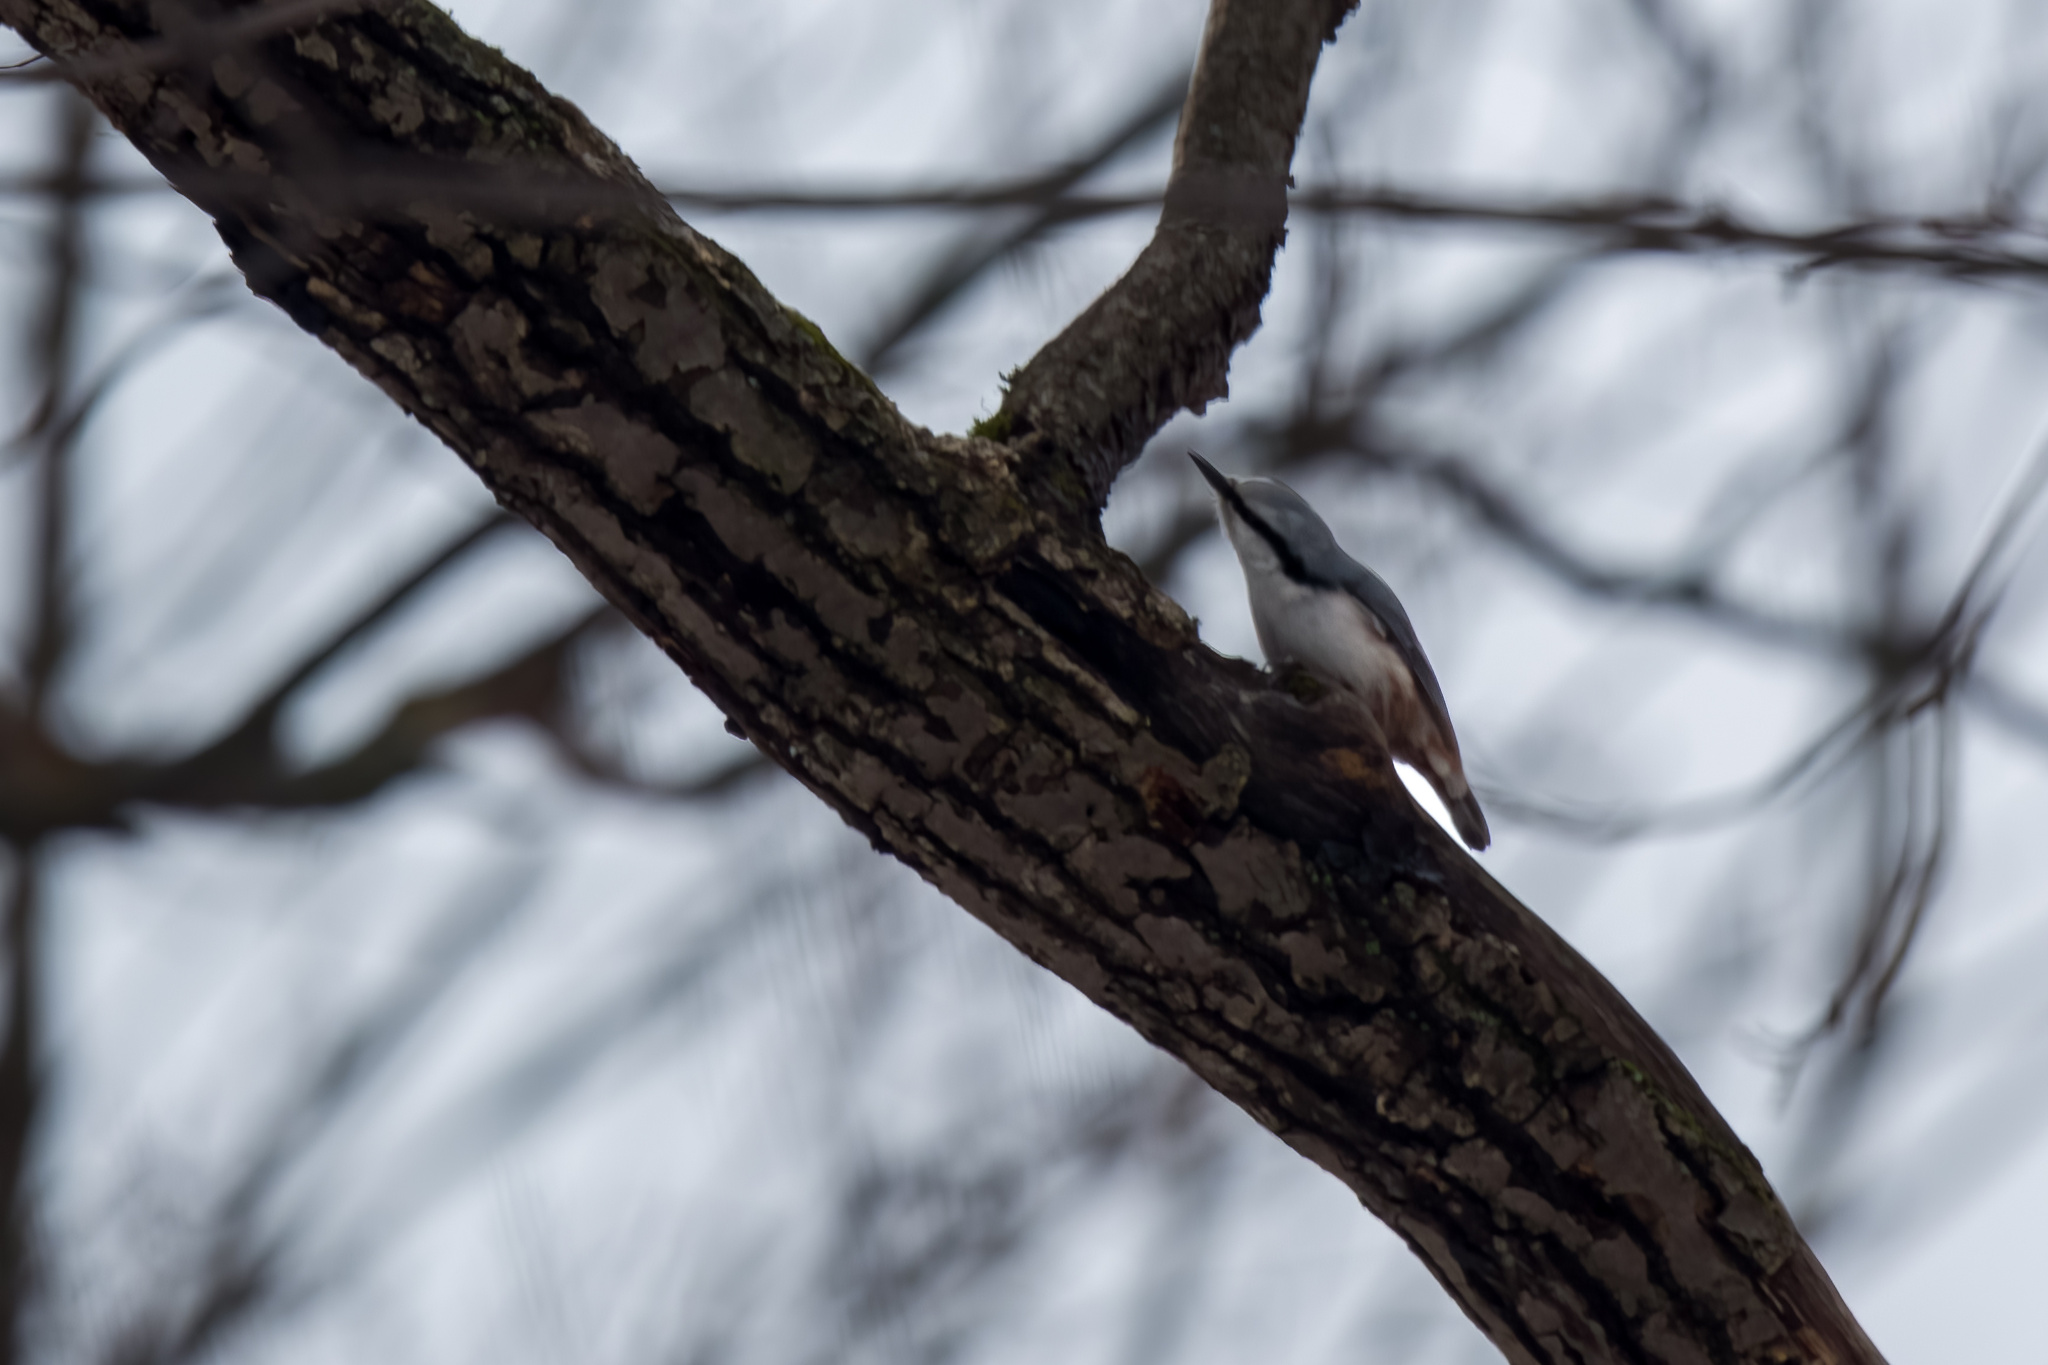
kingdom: Animalia
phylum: Chordata
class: Aves
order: Passeriformes
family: Sittidae
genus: Sitta
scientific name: Sitta europaea
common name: Eurasian nuthatch
